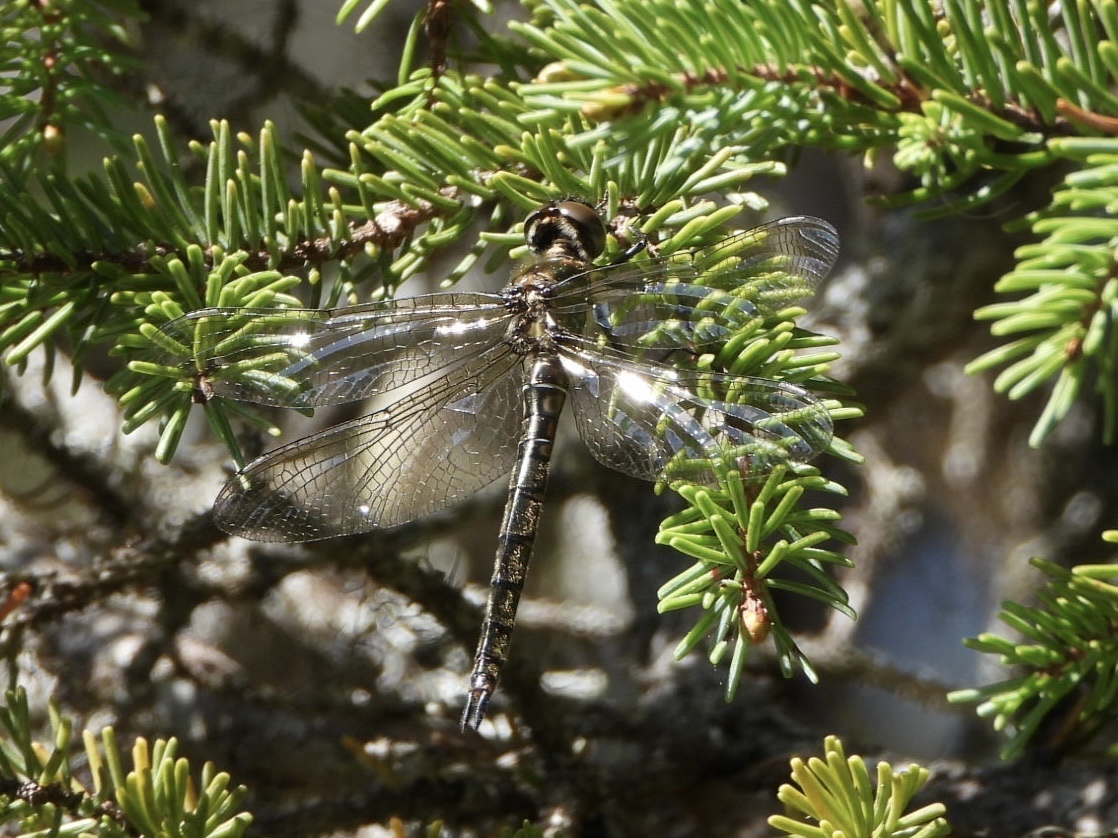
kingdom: Animalia
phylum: Arthropoda
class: Insecta
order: Odonata
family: Corduliidae
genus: Epitheca
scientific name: Epitheca spinigera
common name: Spiny baskettail
